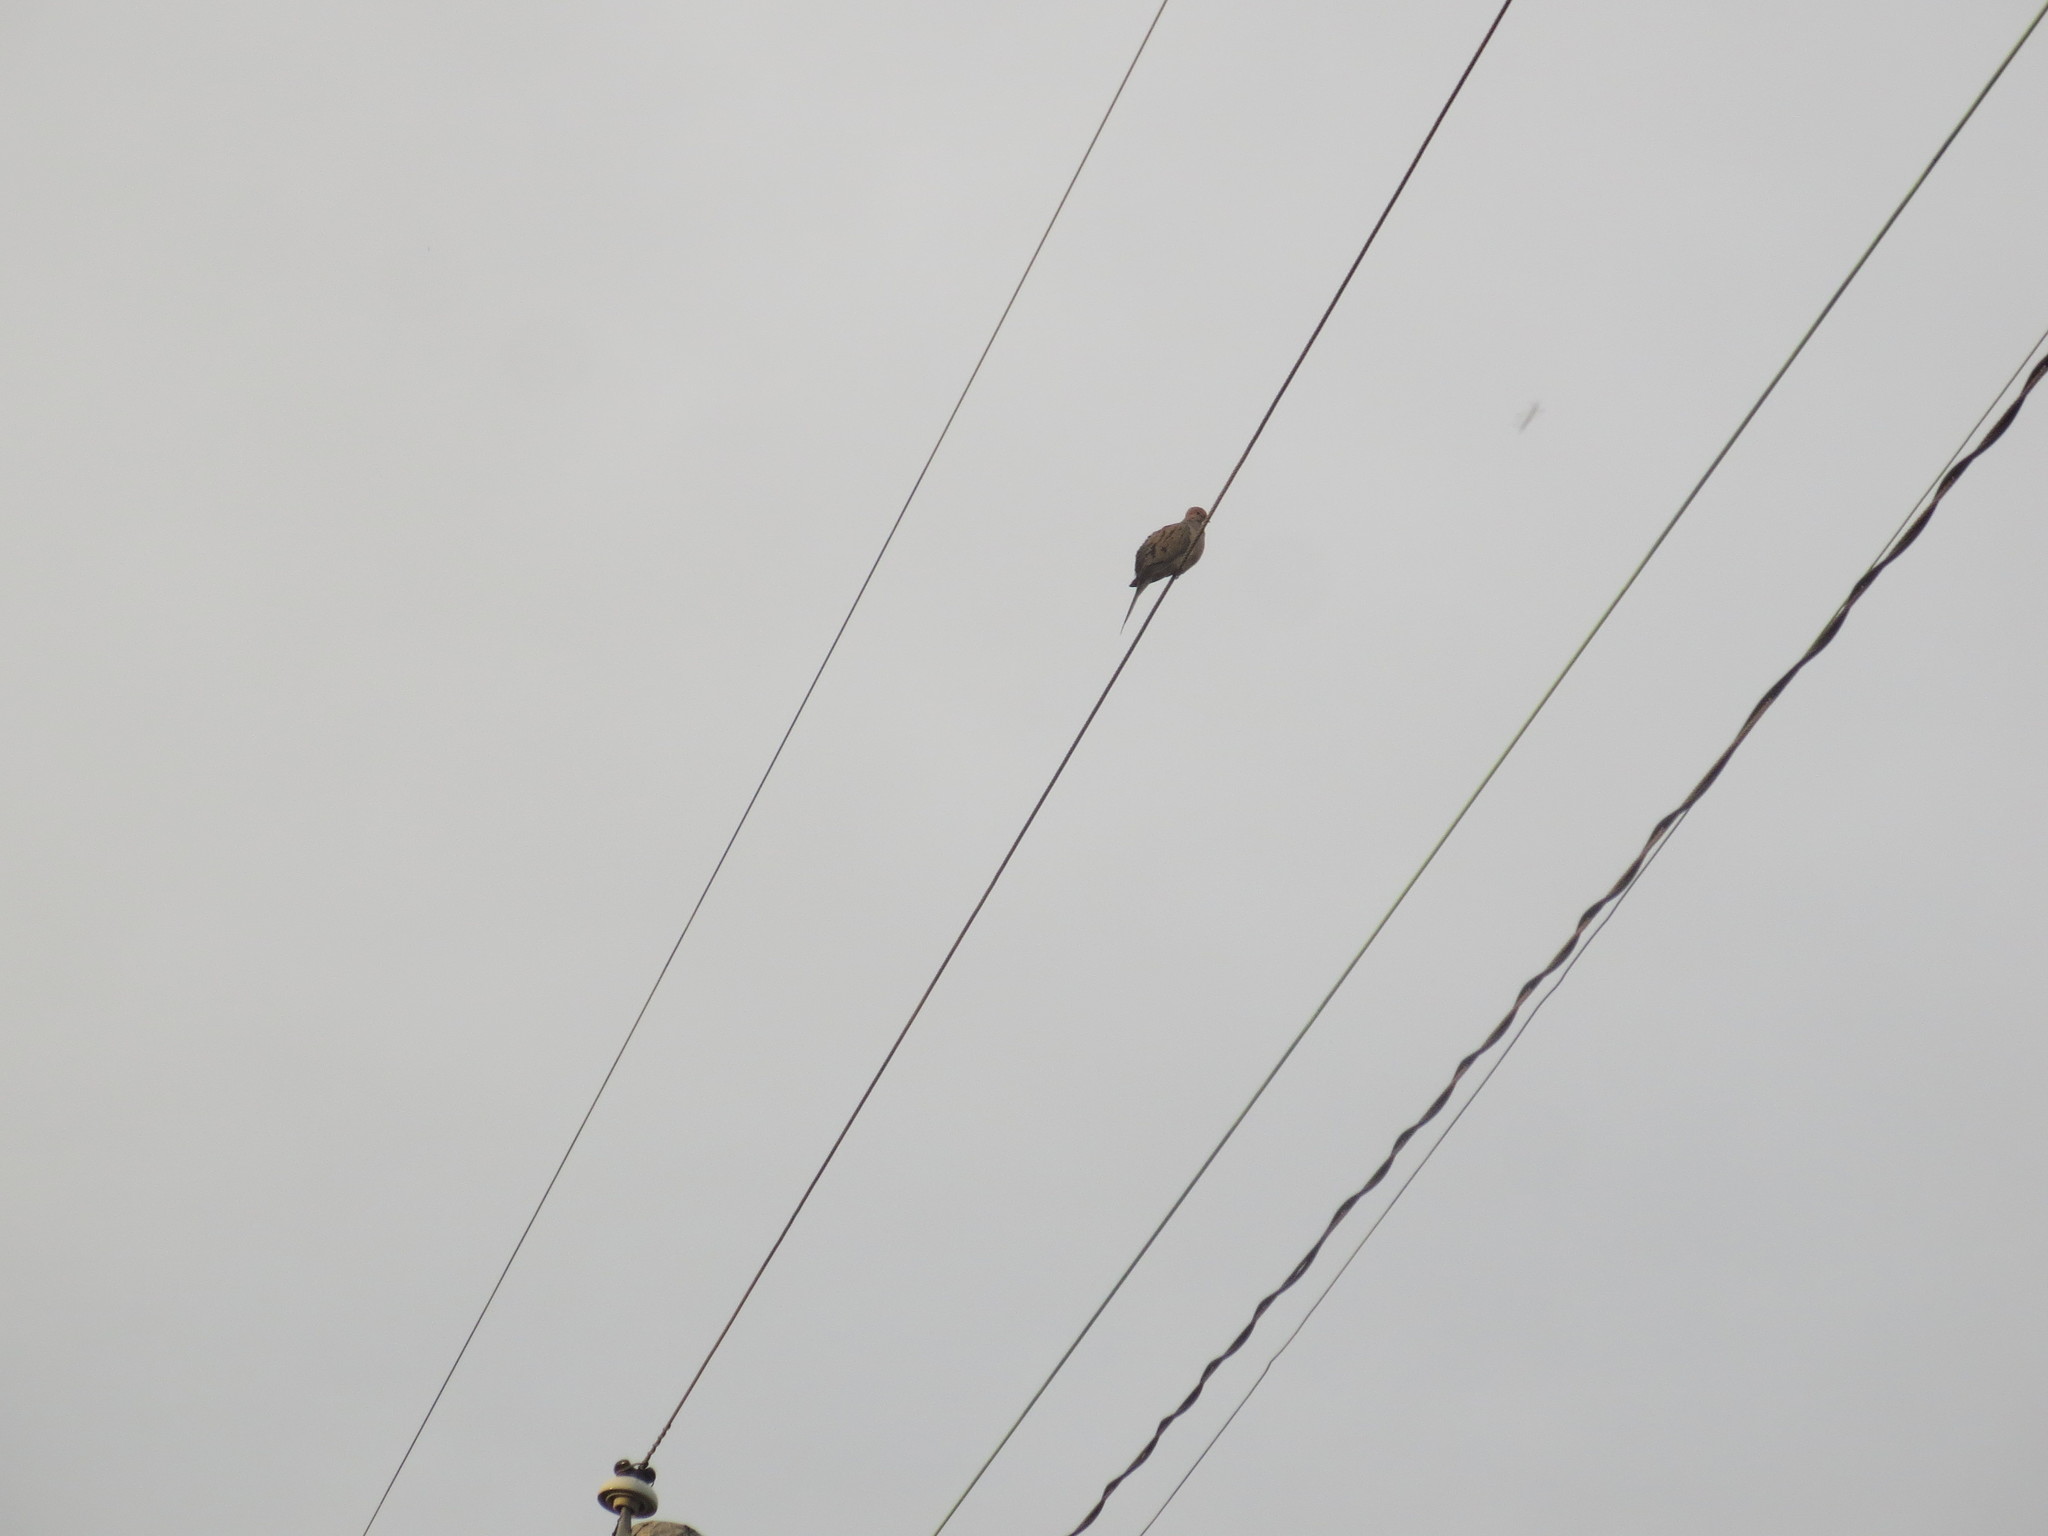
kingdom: Animalia
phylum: Chordata
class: Aves
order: Columbiformes
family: Columbidae
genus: Zenaida
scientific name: Zenaida macroura
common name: Mourning dove
